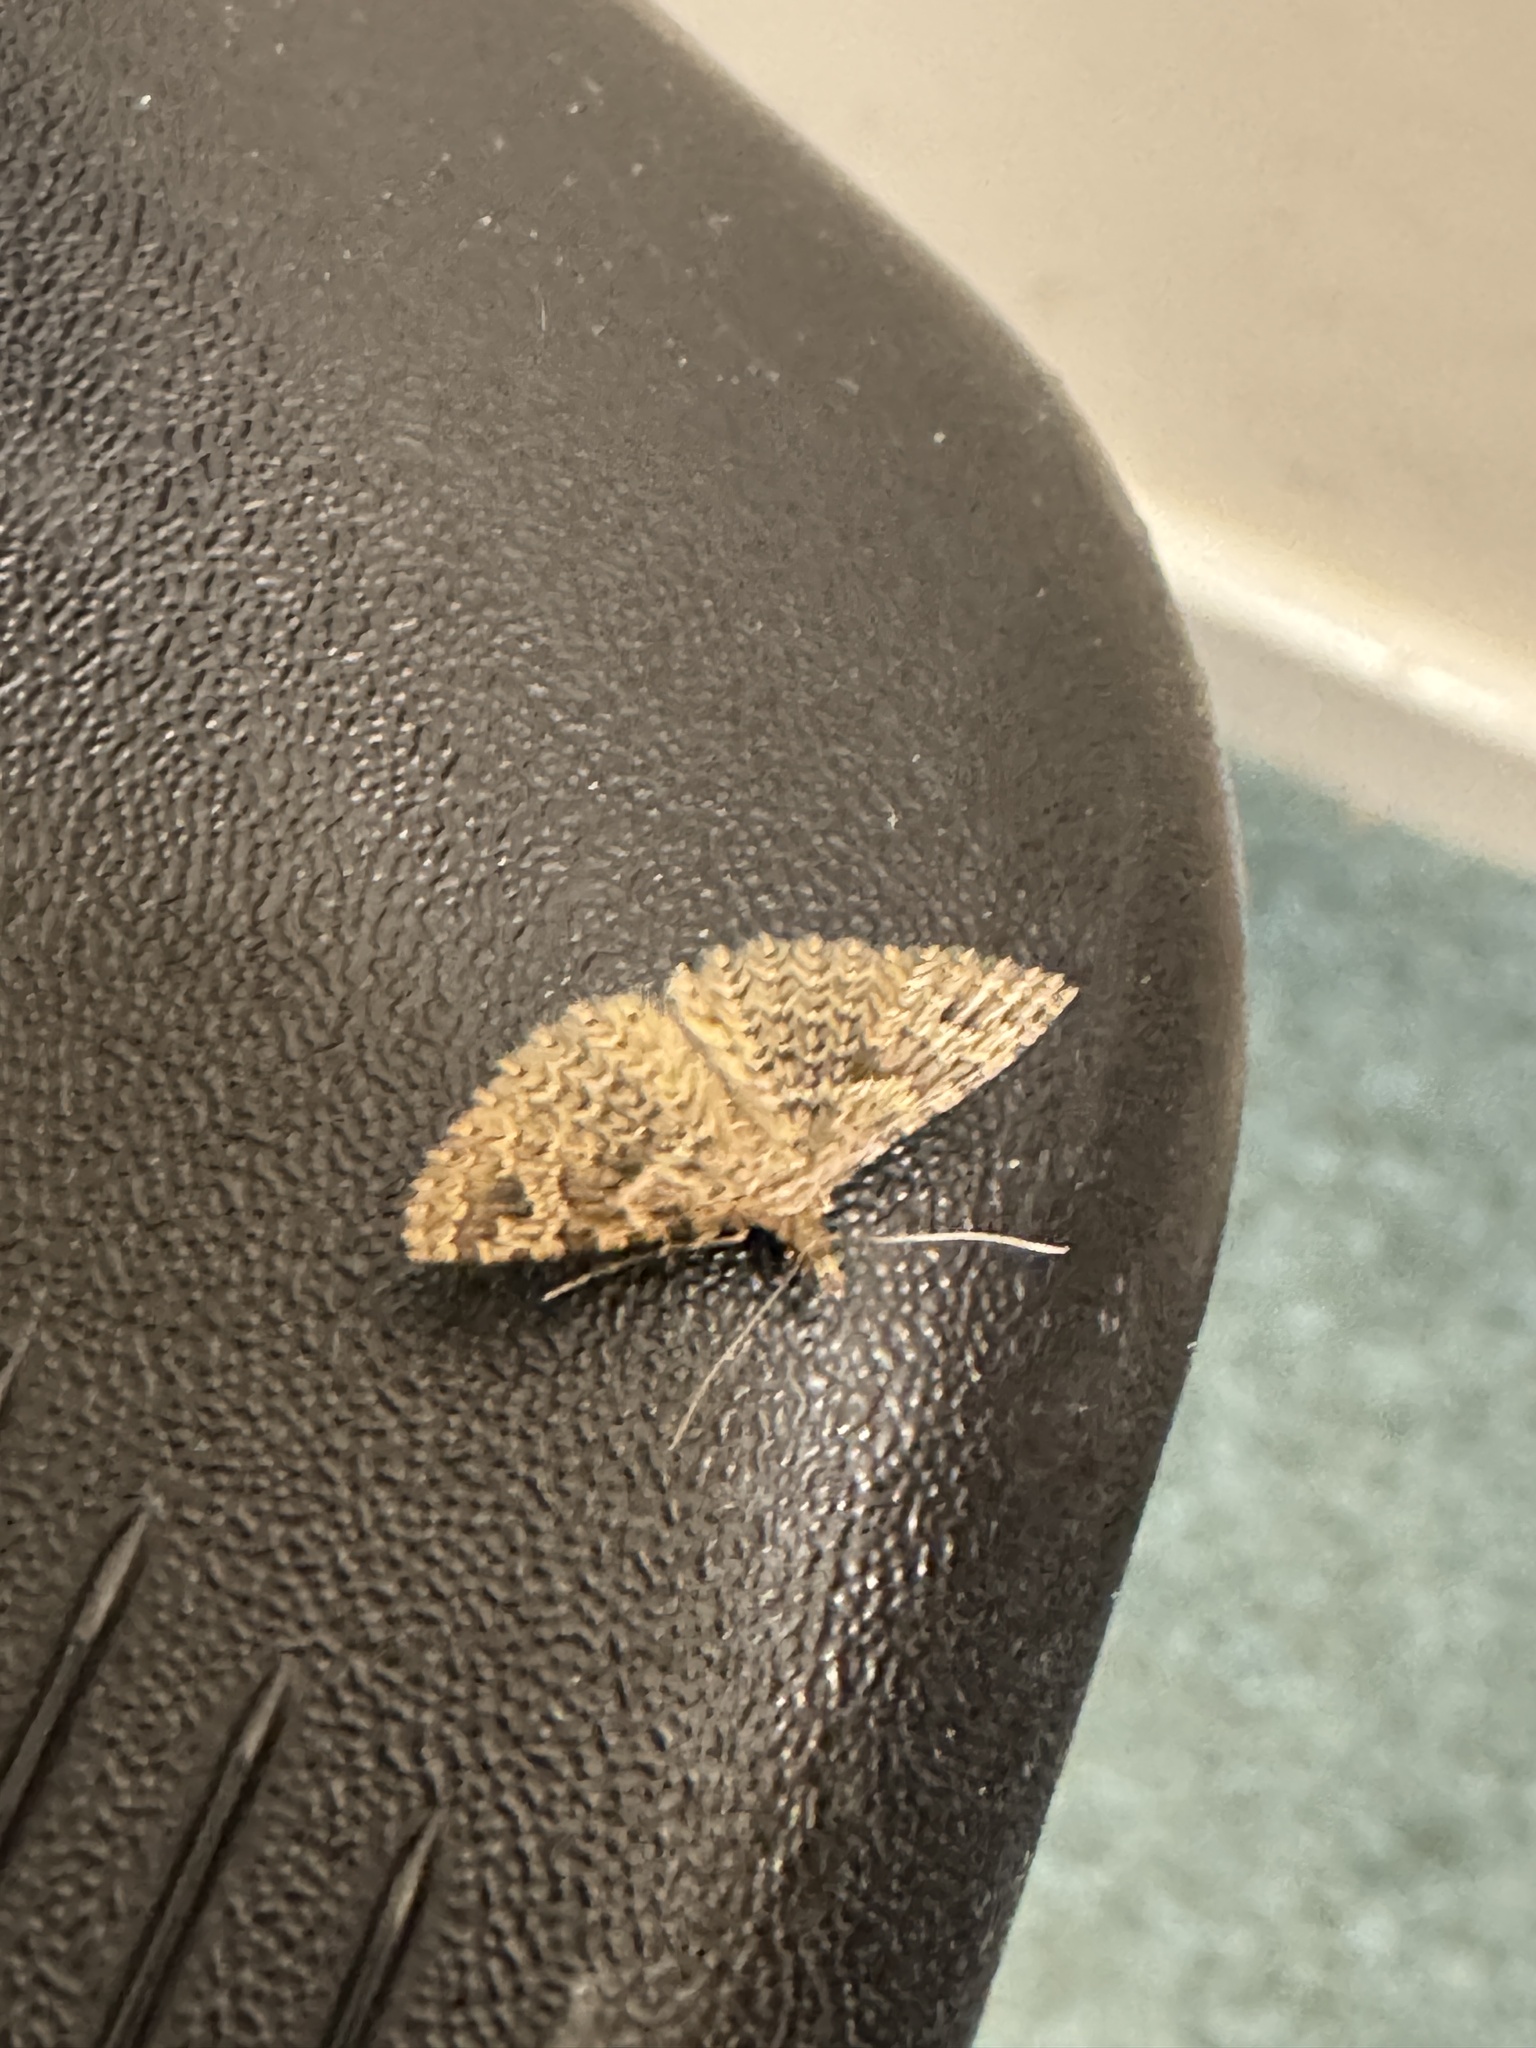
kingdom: Animalia
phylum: Arthropoda
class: Insecta
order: Lepidoptera
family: Alucitidae
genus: Alucita
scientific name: Alucita hexadactyla
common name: Twenty-plume moth
